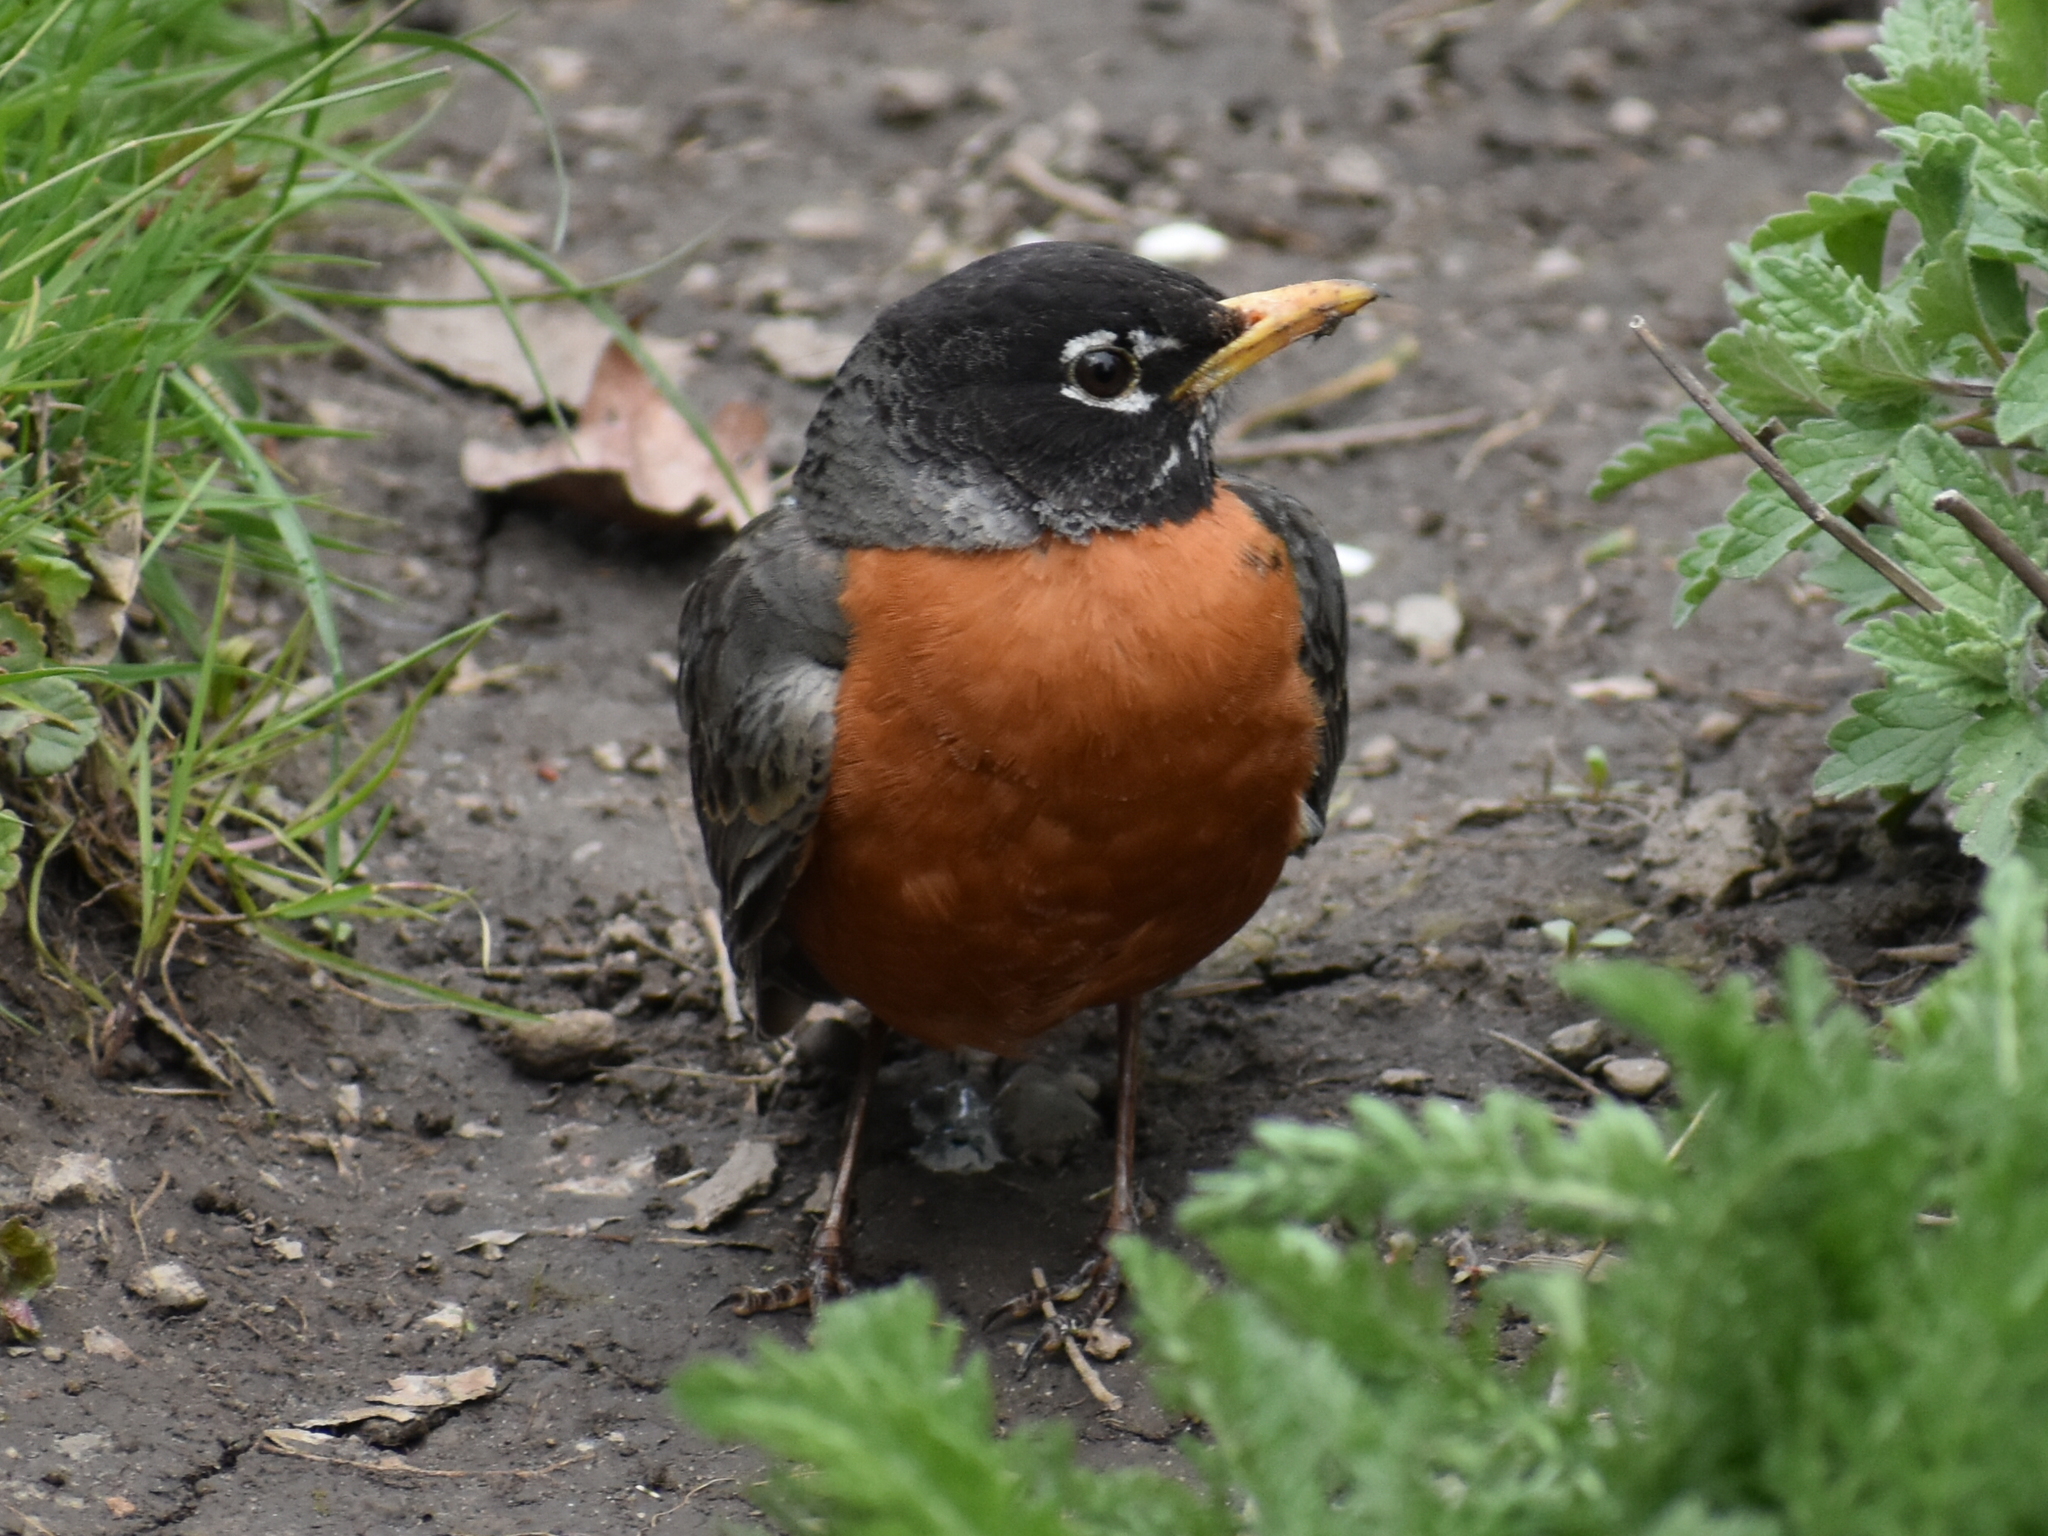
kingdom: Animalia
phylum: Chordata
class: Aves
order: Passeriformes
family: Turdidae
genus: Turdus
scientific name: Turdus migratorius
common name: American robin
